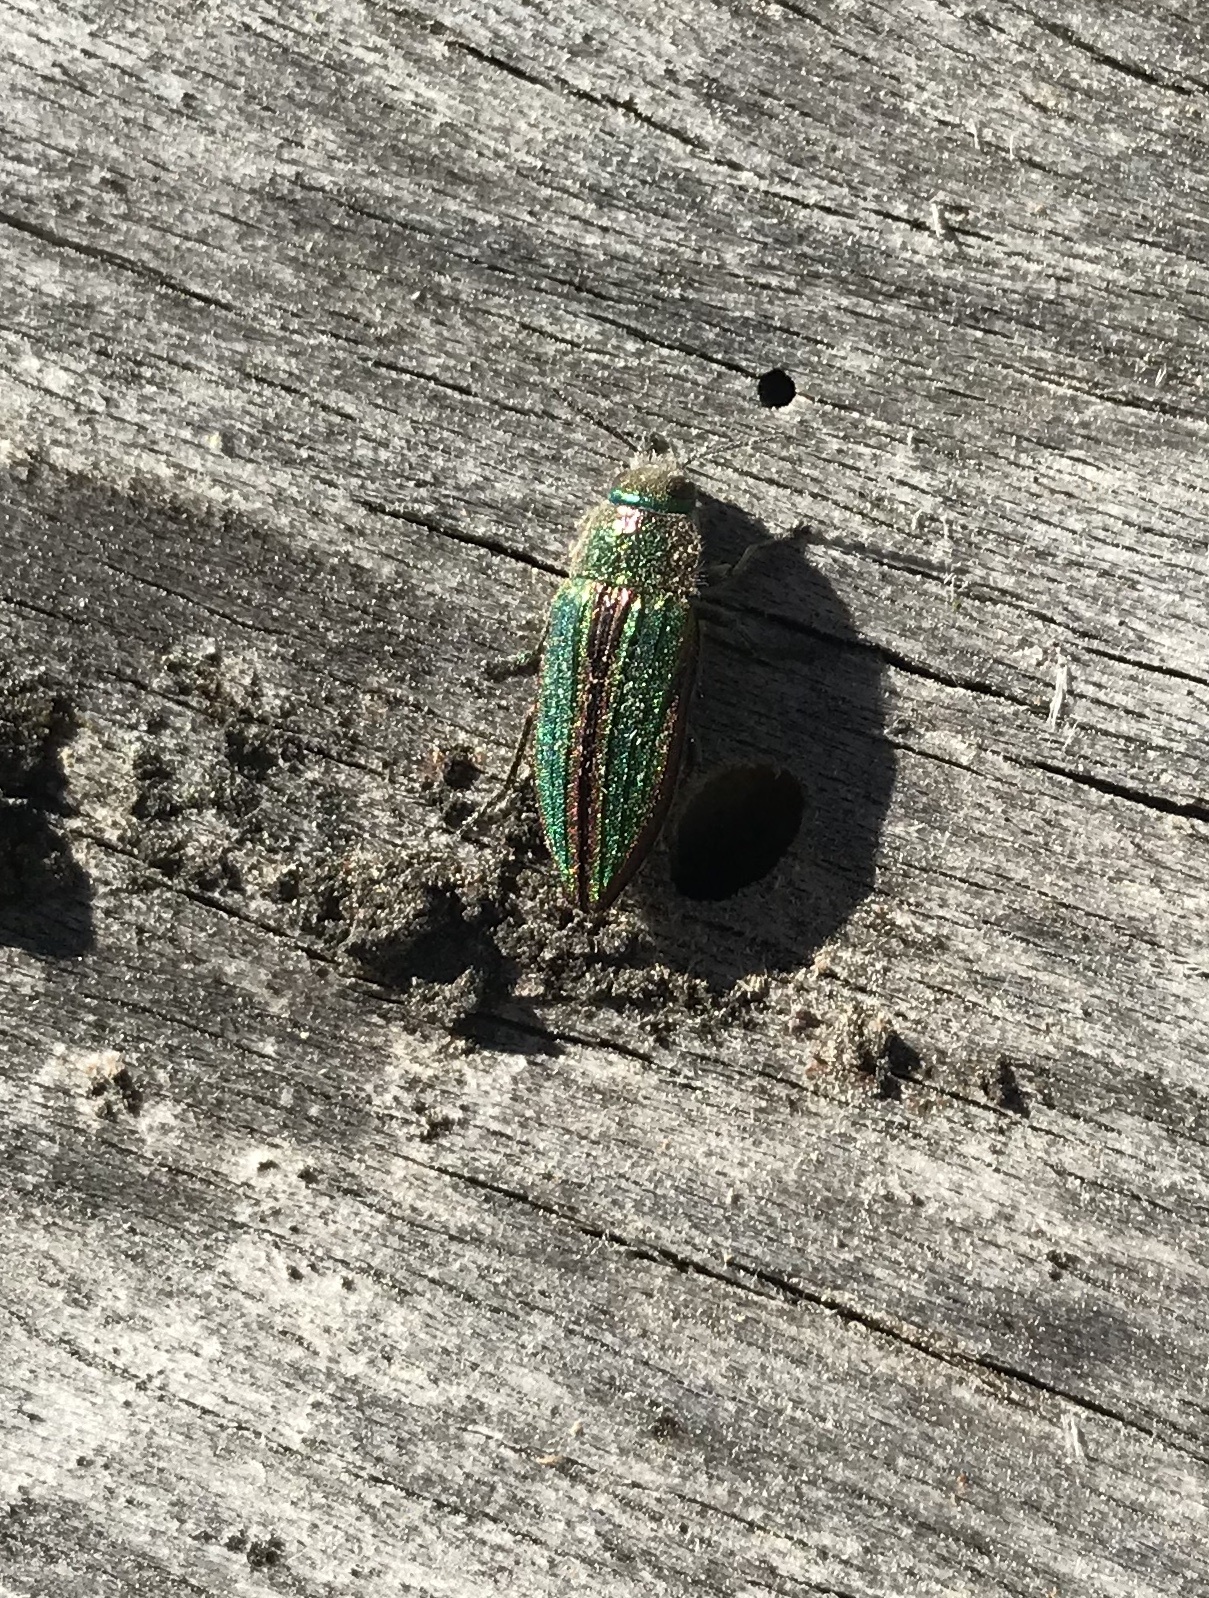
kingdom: Animalia
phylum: Arthropoda
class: Insecta
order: Coleoptera
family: Buprestidae
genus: Buprestis
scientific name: Buprestis aurulenta
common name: Golden buprestid
